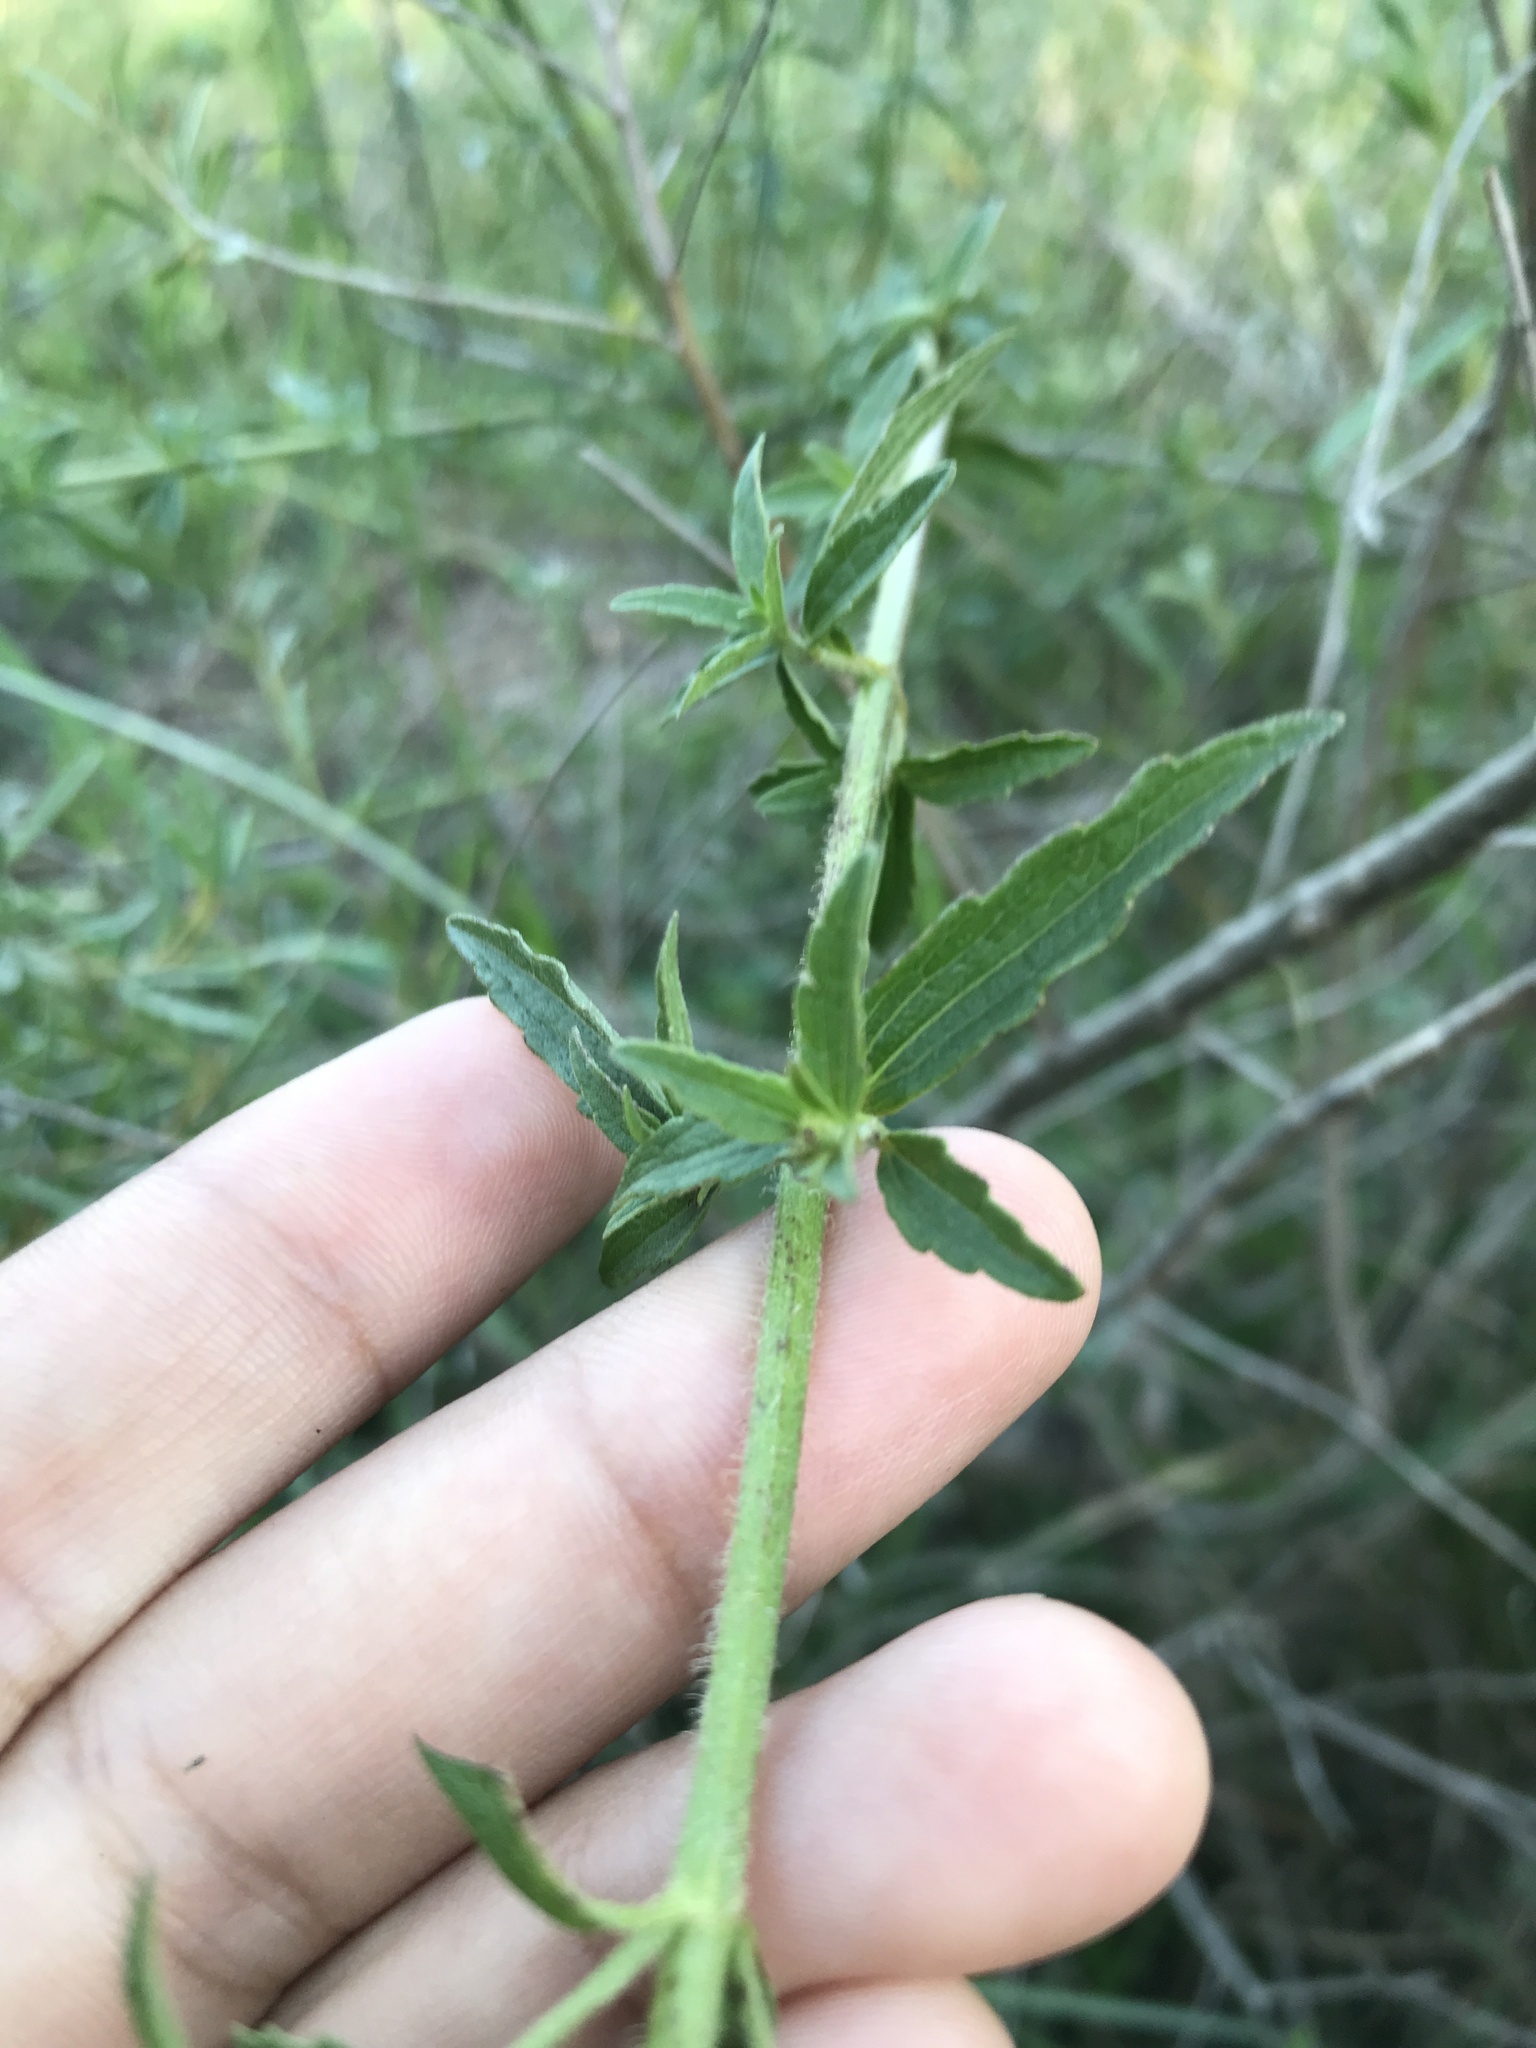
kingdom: Plantae
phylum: Tracheophyta
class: Magnoliopsida
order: Asterales
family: Asteraceae
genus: Chromolaena
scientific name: Chromolaena squarrosoramosa
